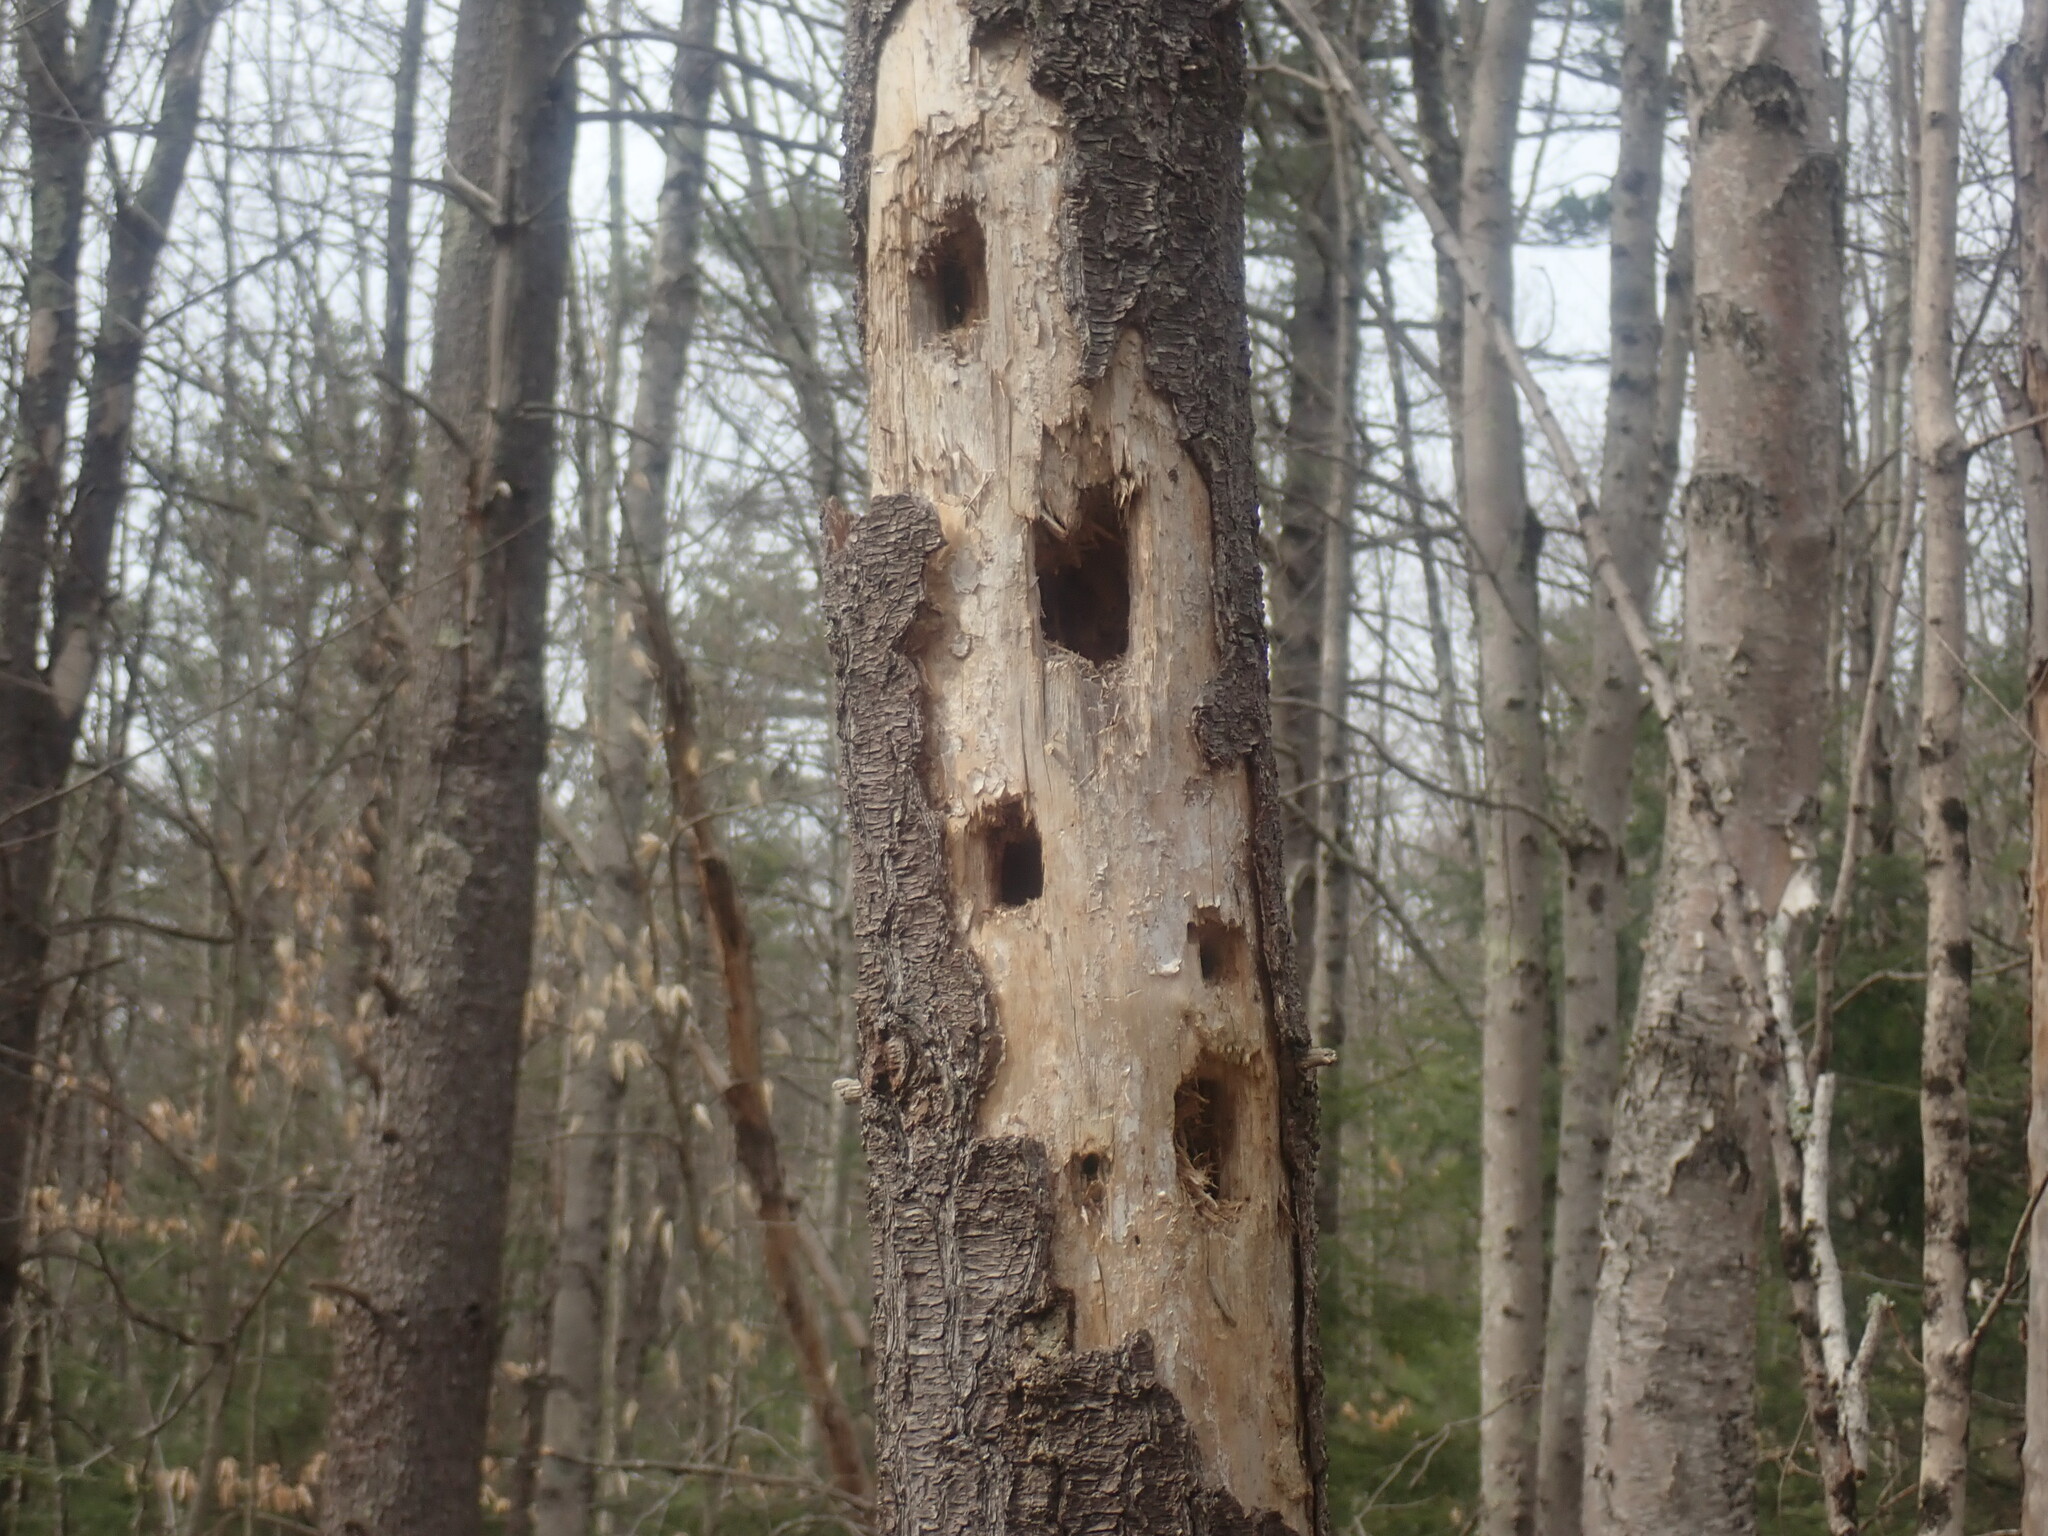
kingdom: Animalia
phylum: Chordata
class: Aves
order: Piciformes
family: Picidae
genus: Dryocopus
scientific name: Dryocopus pileatus
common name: Pileated woodpecker
